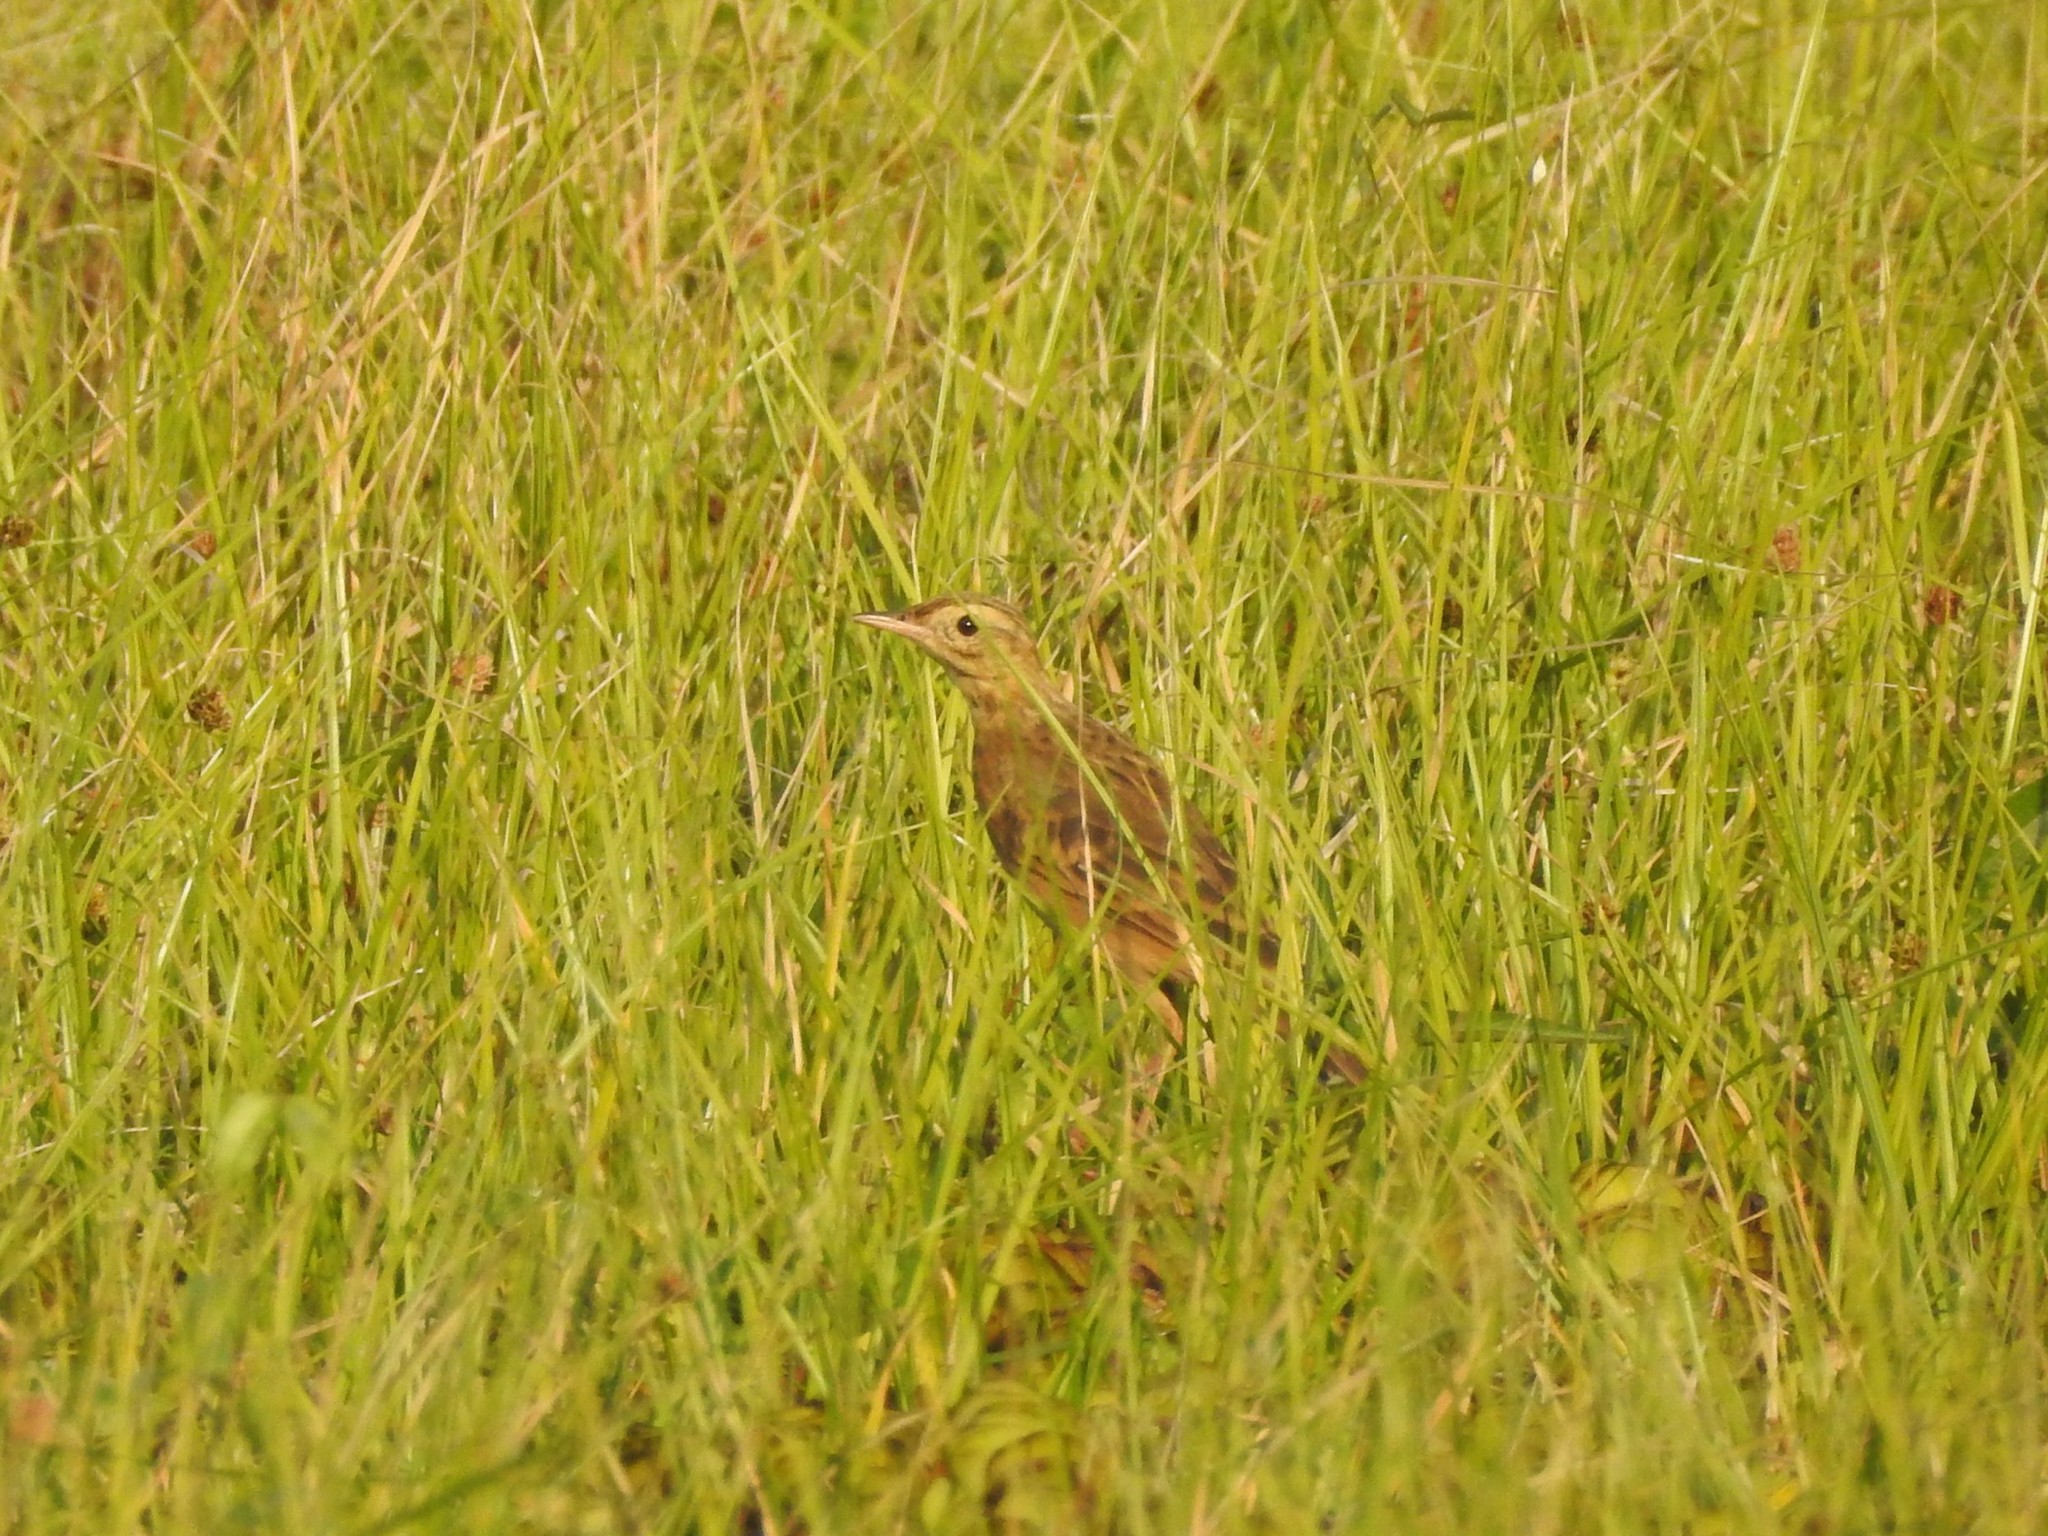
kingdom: Animalia
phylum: Chordata
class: Aves
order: Passeriformes
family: Motacillidae
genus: Anthus
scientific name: Anthus rufulus
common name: Paddyfield pipit
